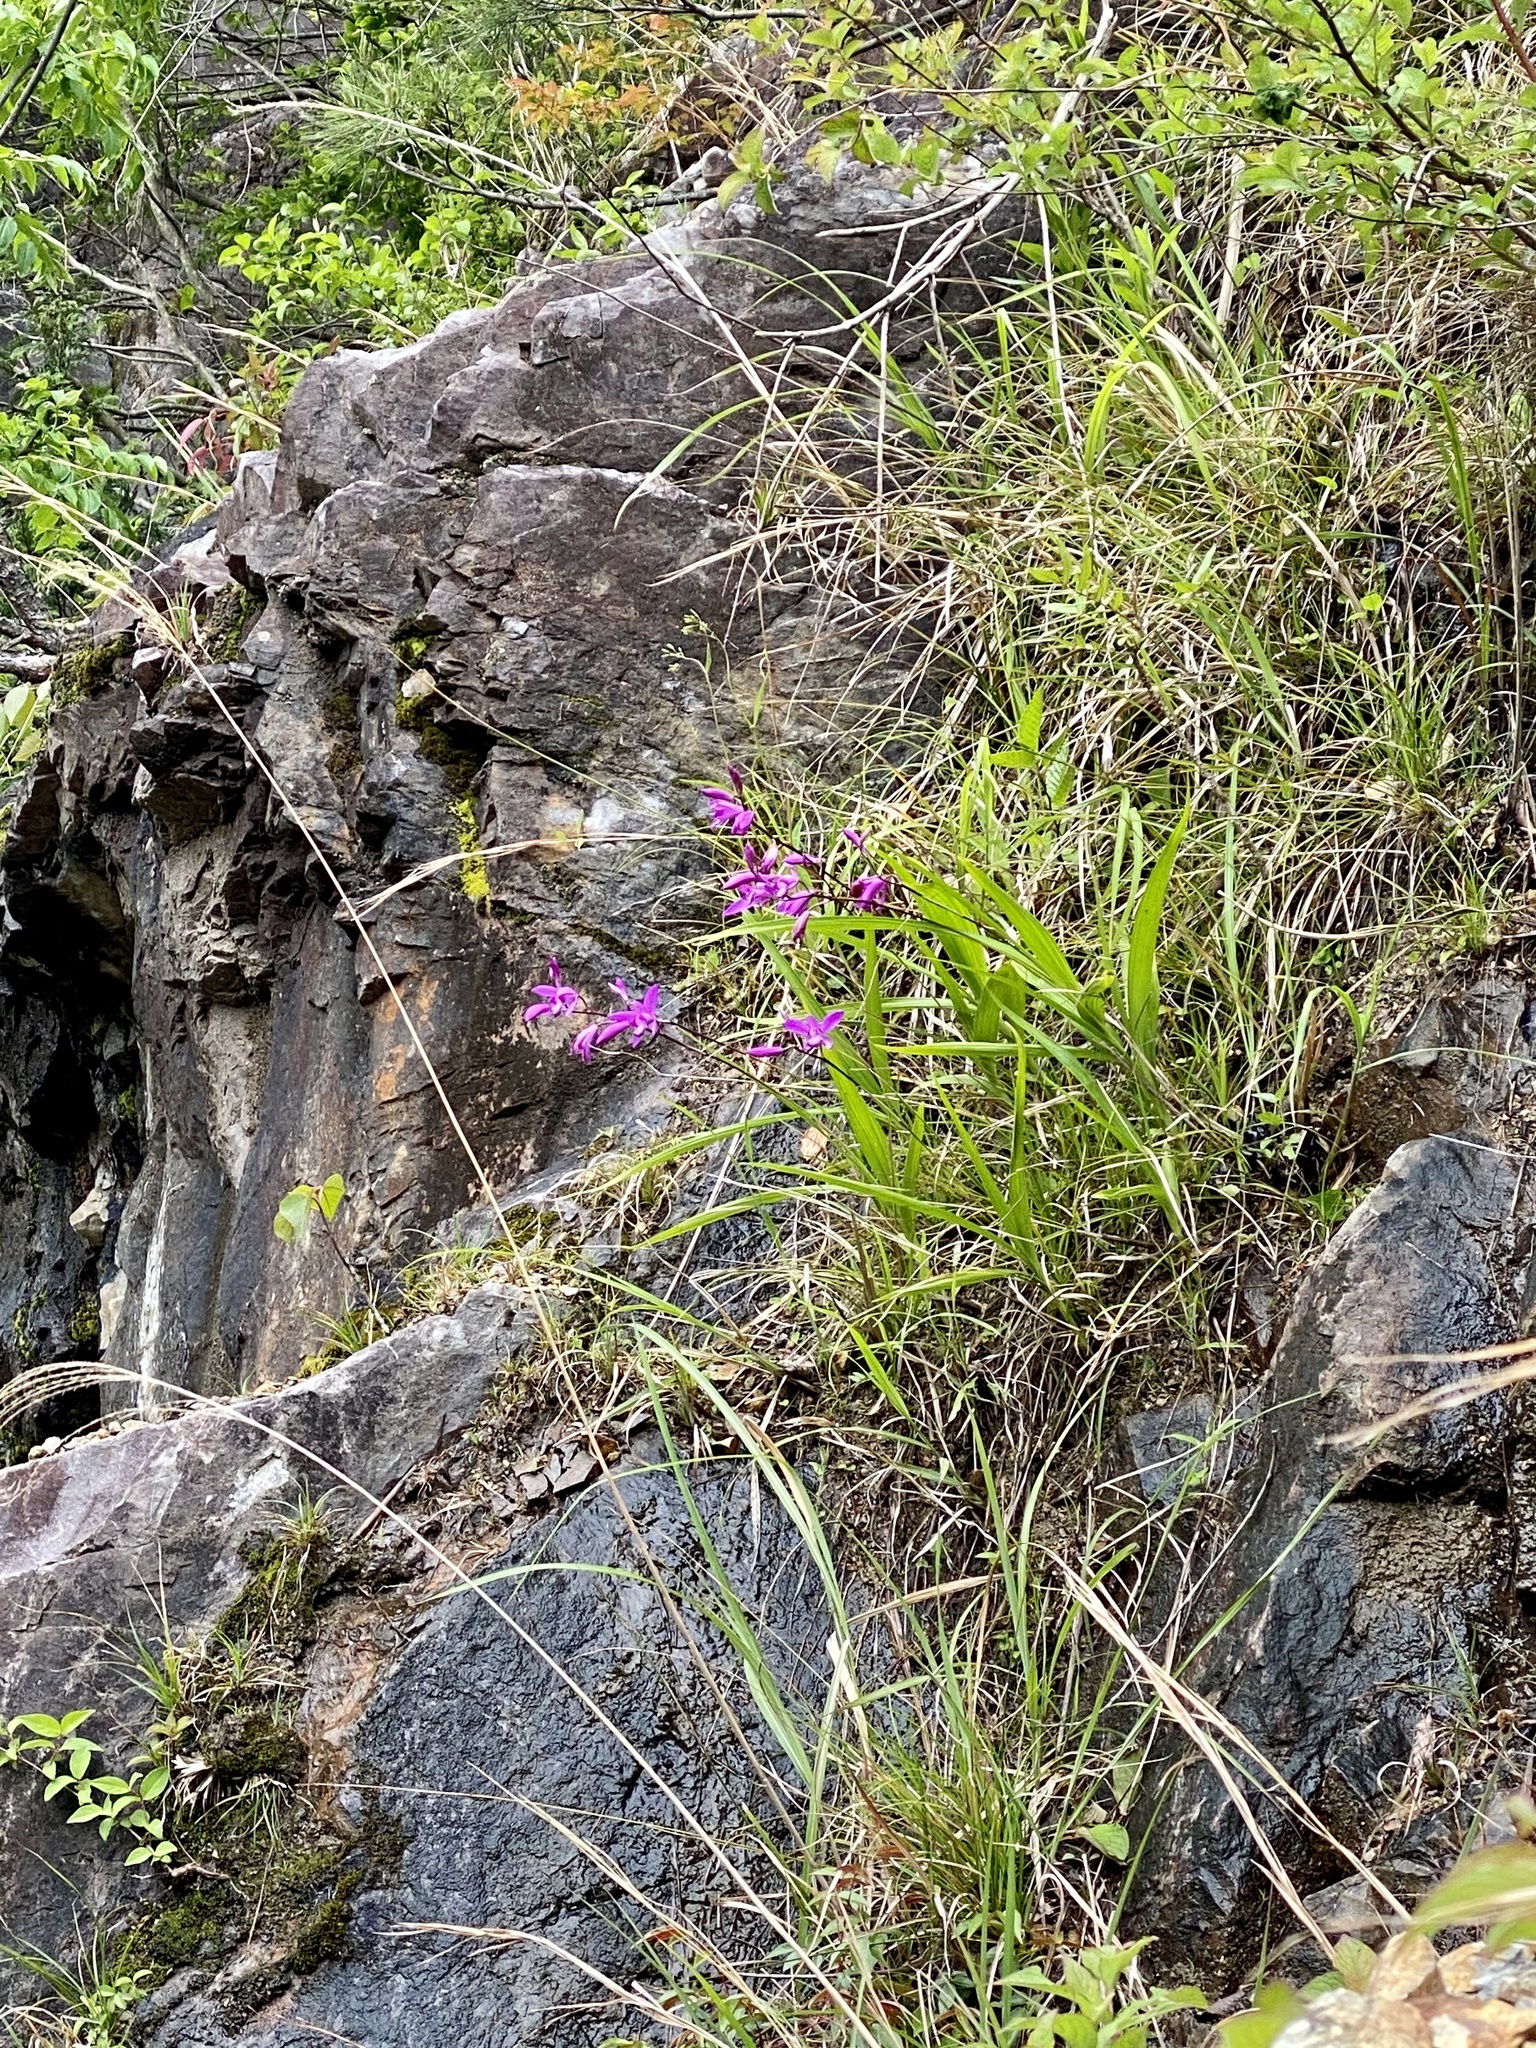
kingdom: Plantae
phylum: Tracheophyta
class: Liliopsida
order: Asparagales
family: Orchidaceae
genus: Bletilla
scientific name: Bletilla striata
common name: Hyacinth orchid
